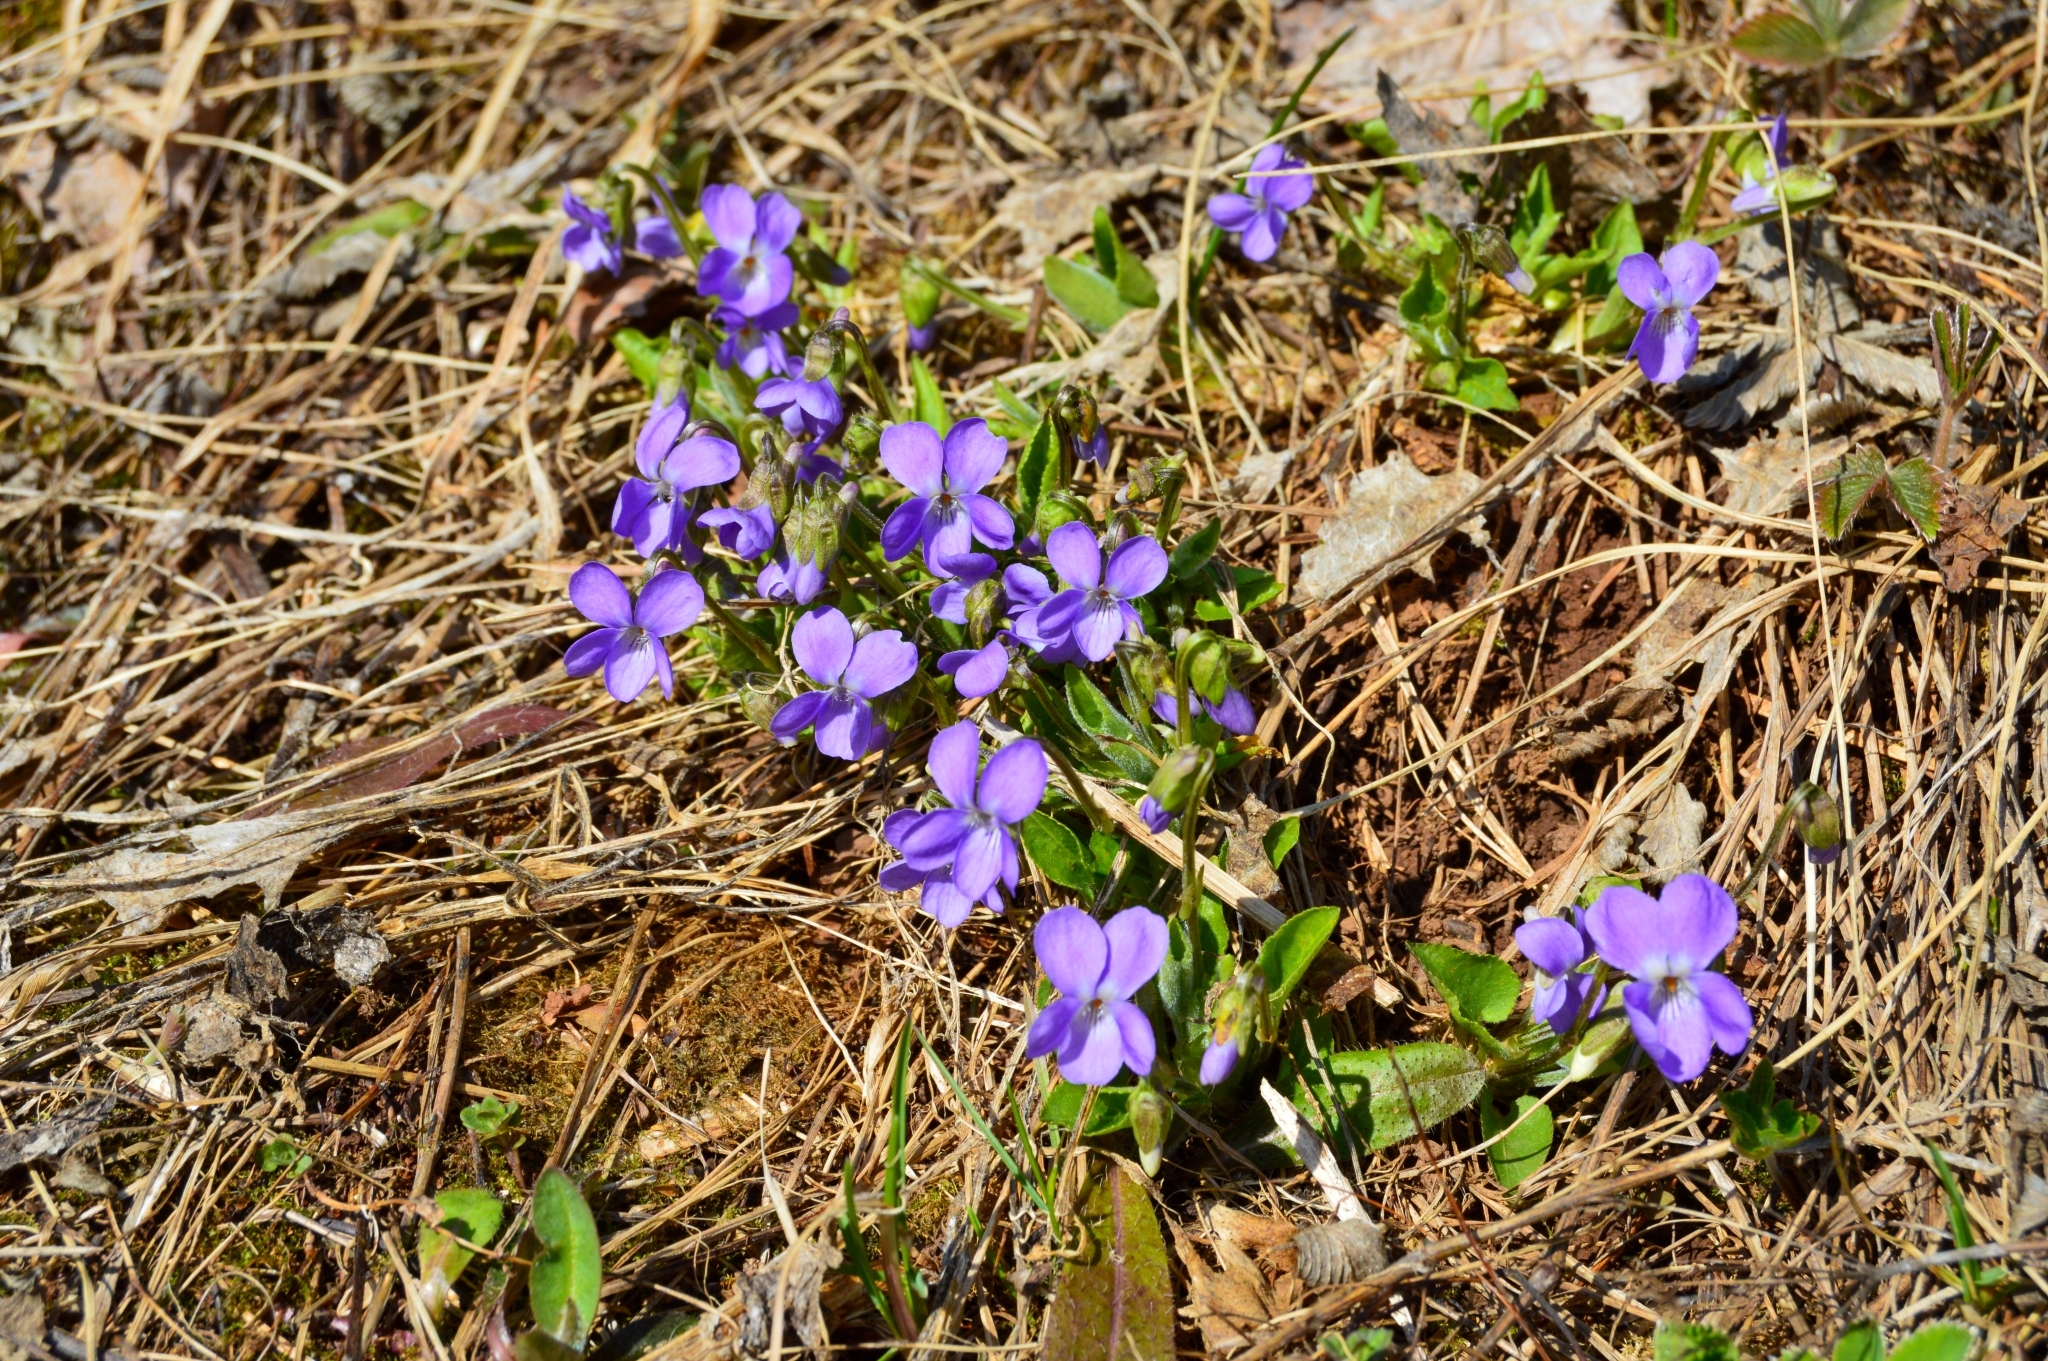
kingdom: Plantae
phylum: Tracheophyta
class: Magnoliopsida
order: Malpighiales
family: Violaceae
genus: Viola
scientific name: Viola hirta
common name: Hairy violet
